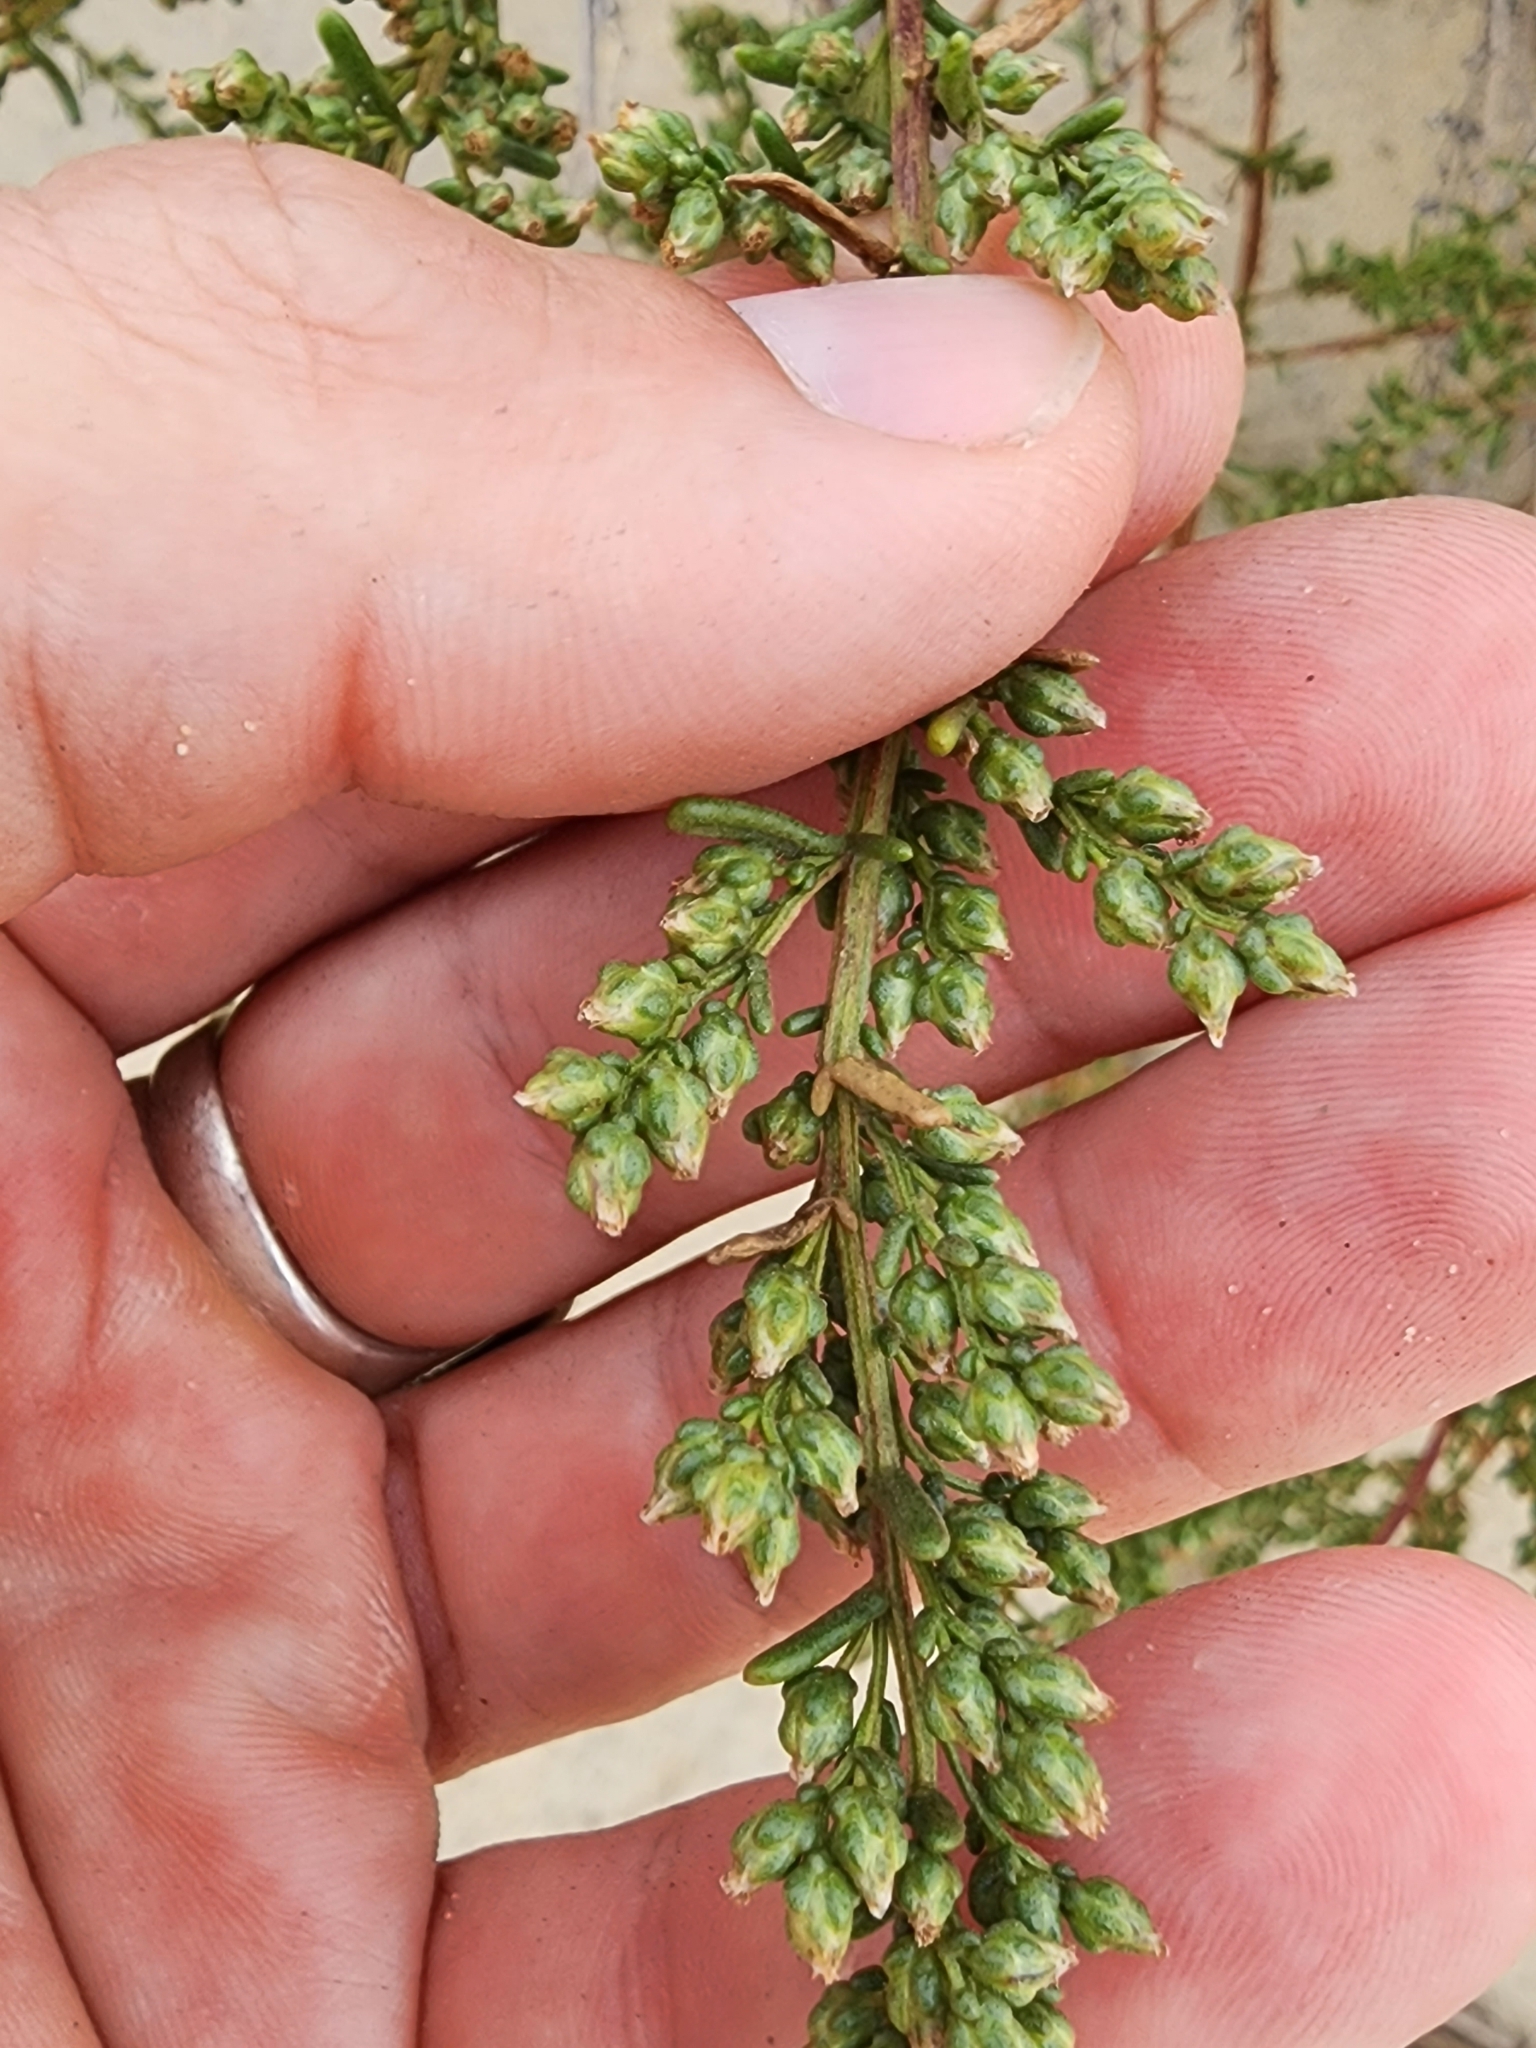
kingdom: Plantae
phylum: Tracheophyta
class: Magnoliopsida
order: Asterales
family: Asteraceae
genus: Artemisia
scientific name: Artemisia crithmifolia
